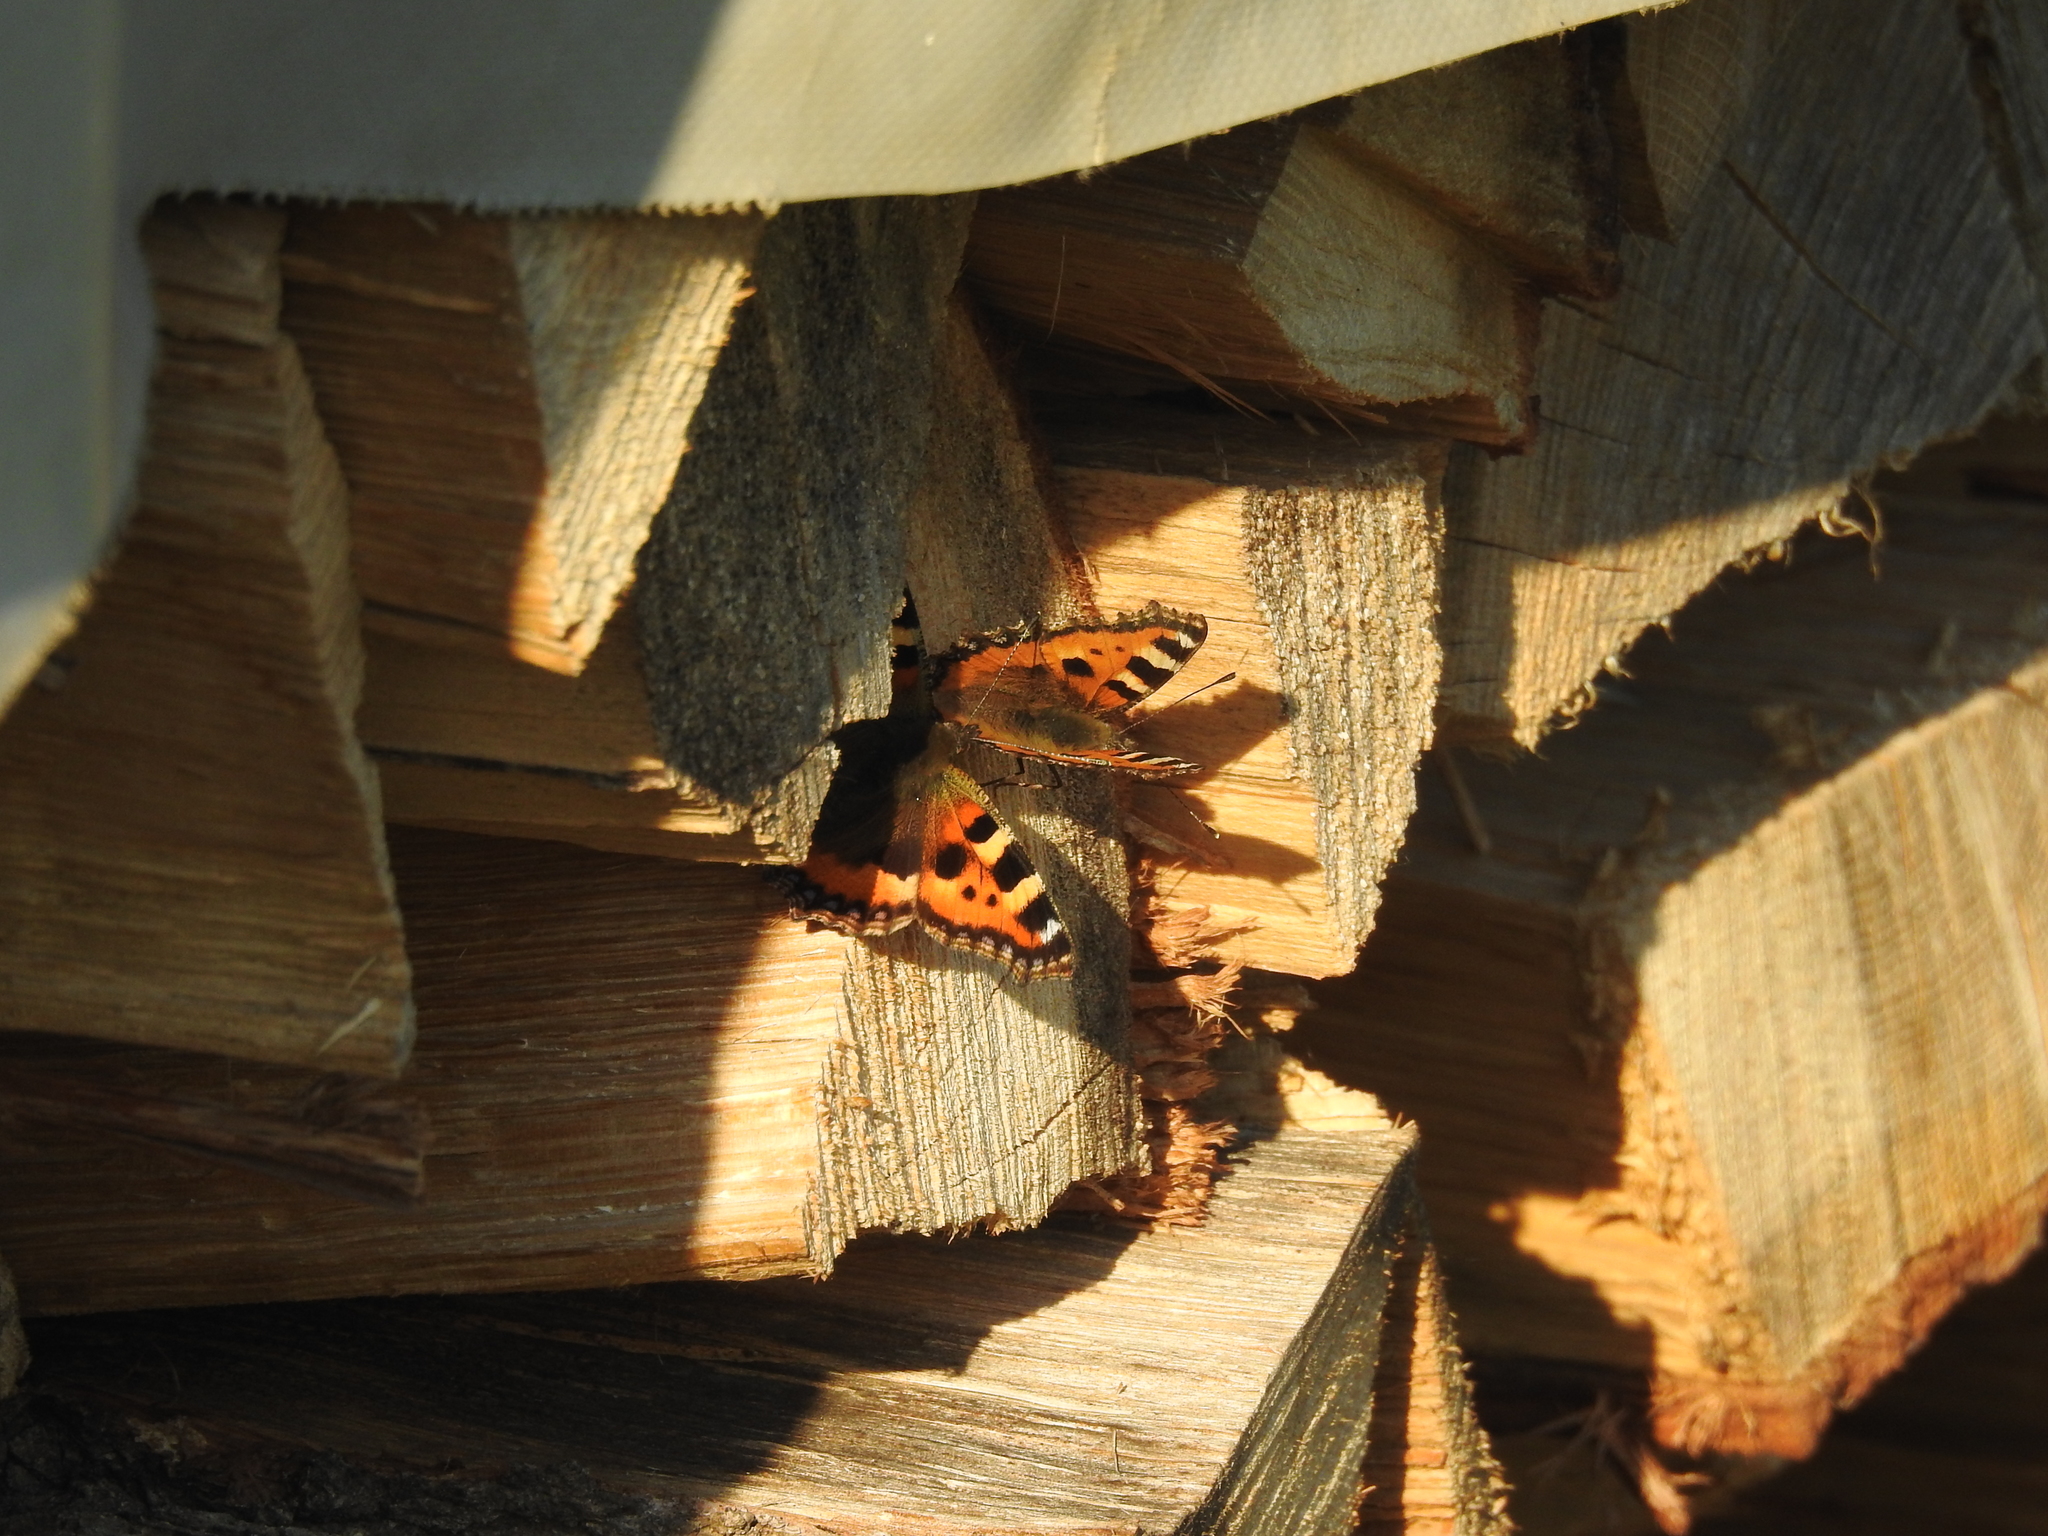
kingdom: Animalia
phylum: Arthropoda
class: Insecta
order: Lepidoptera
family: Nymphalidae
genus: Aglais
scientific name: Aglais urticae
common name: Small tortoiseshell
